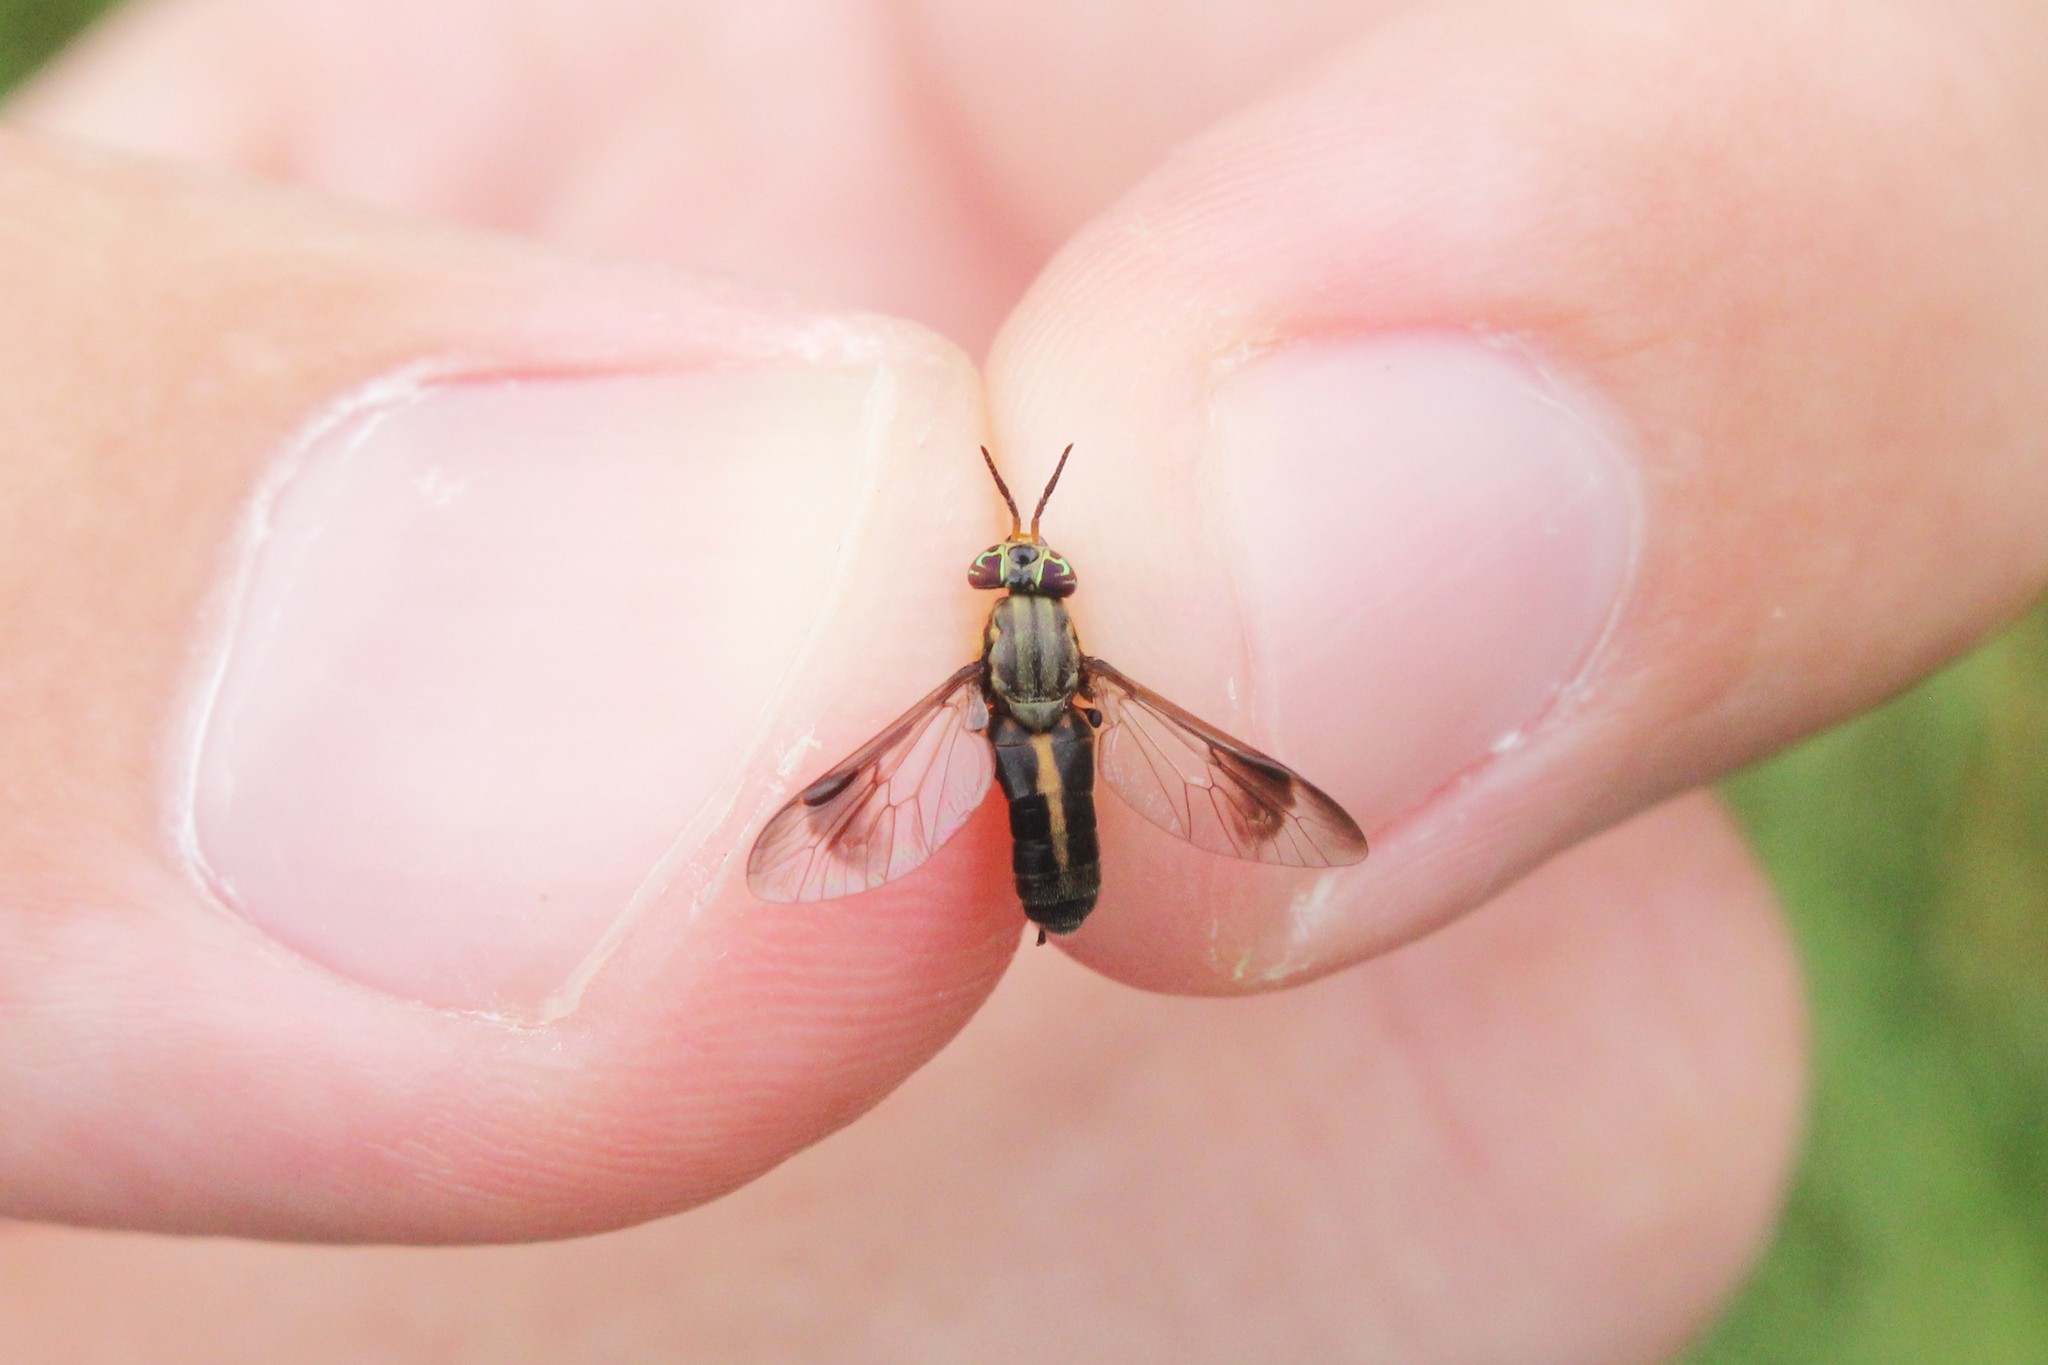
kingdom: Animalia
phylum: Arthropoda
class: Insecta
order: Diptera
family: Tabanidae
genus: Chrysops
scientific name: Chrysops univittatus
